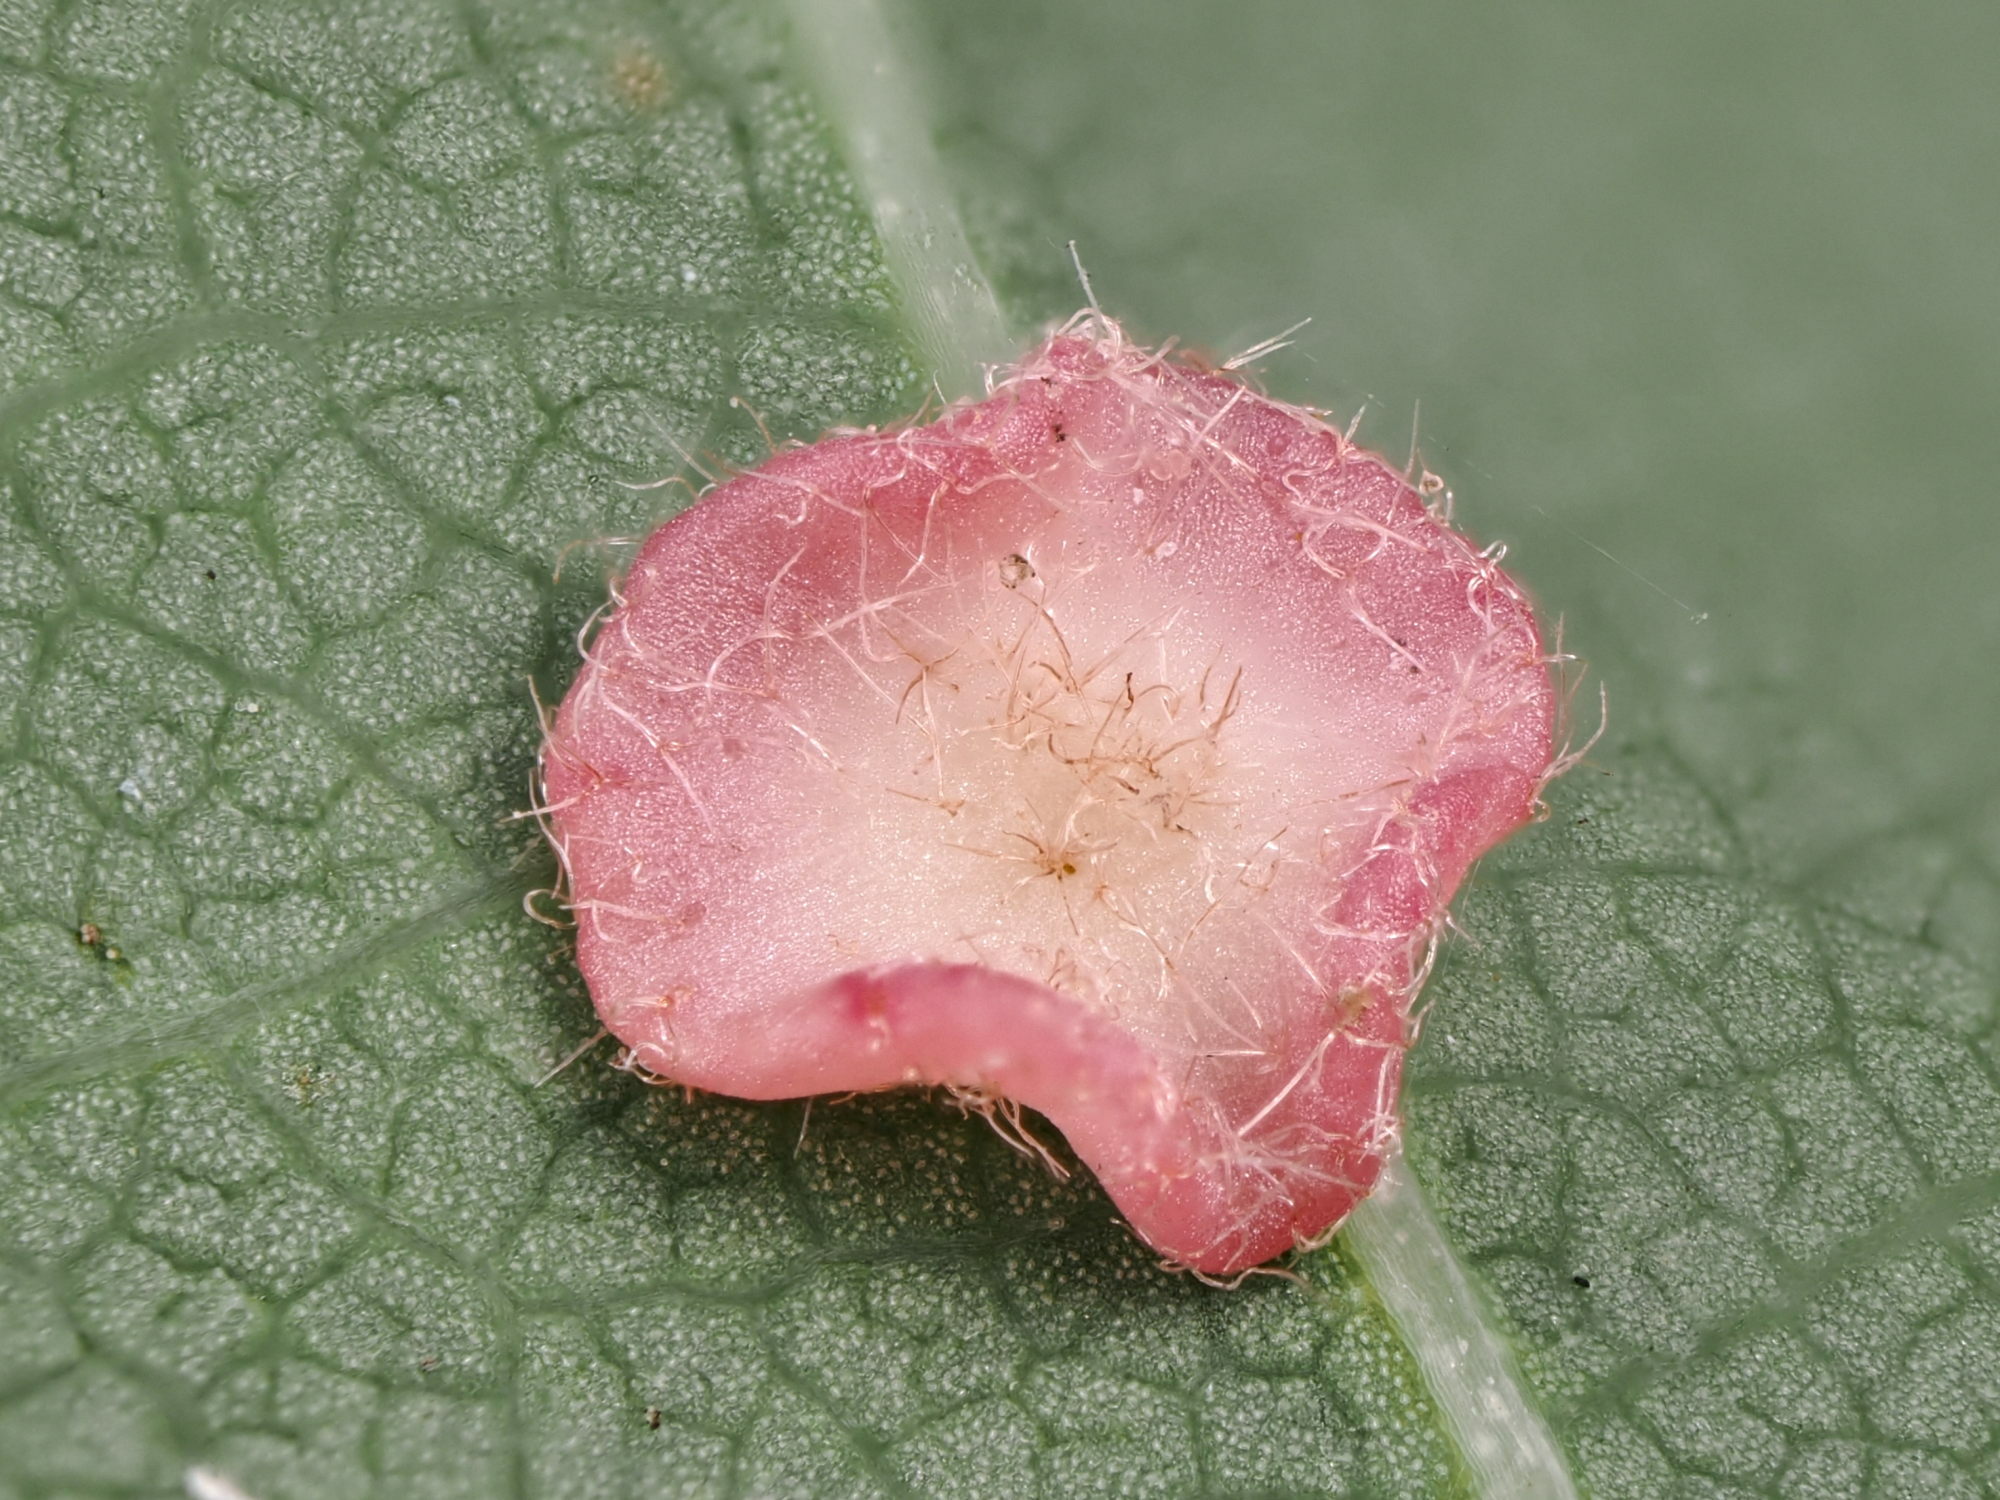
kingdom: Animalia
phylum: Arthropoda
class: Insecta
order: Hymenoptera
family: Cynipidae
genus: Neuroterus
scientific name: Neuroterus albipes
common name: Smooth spangle gall
